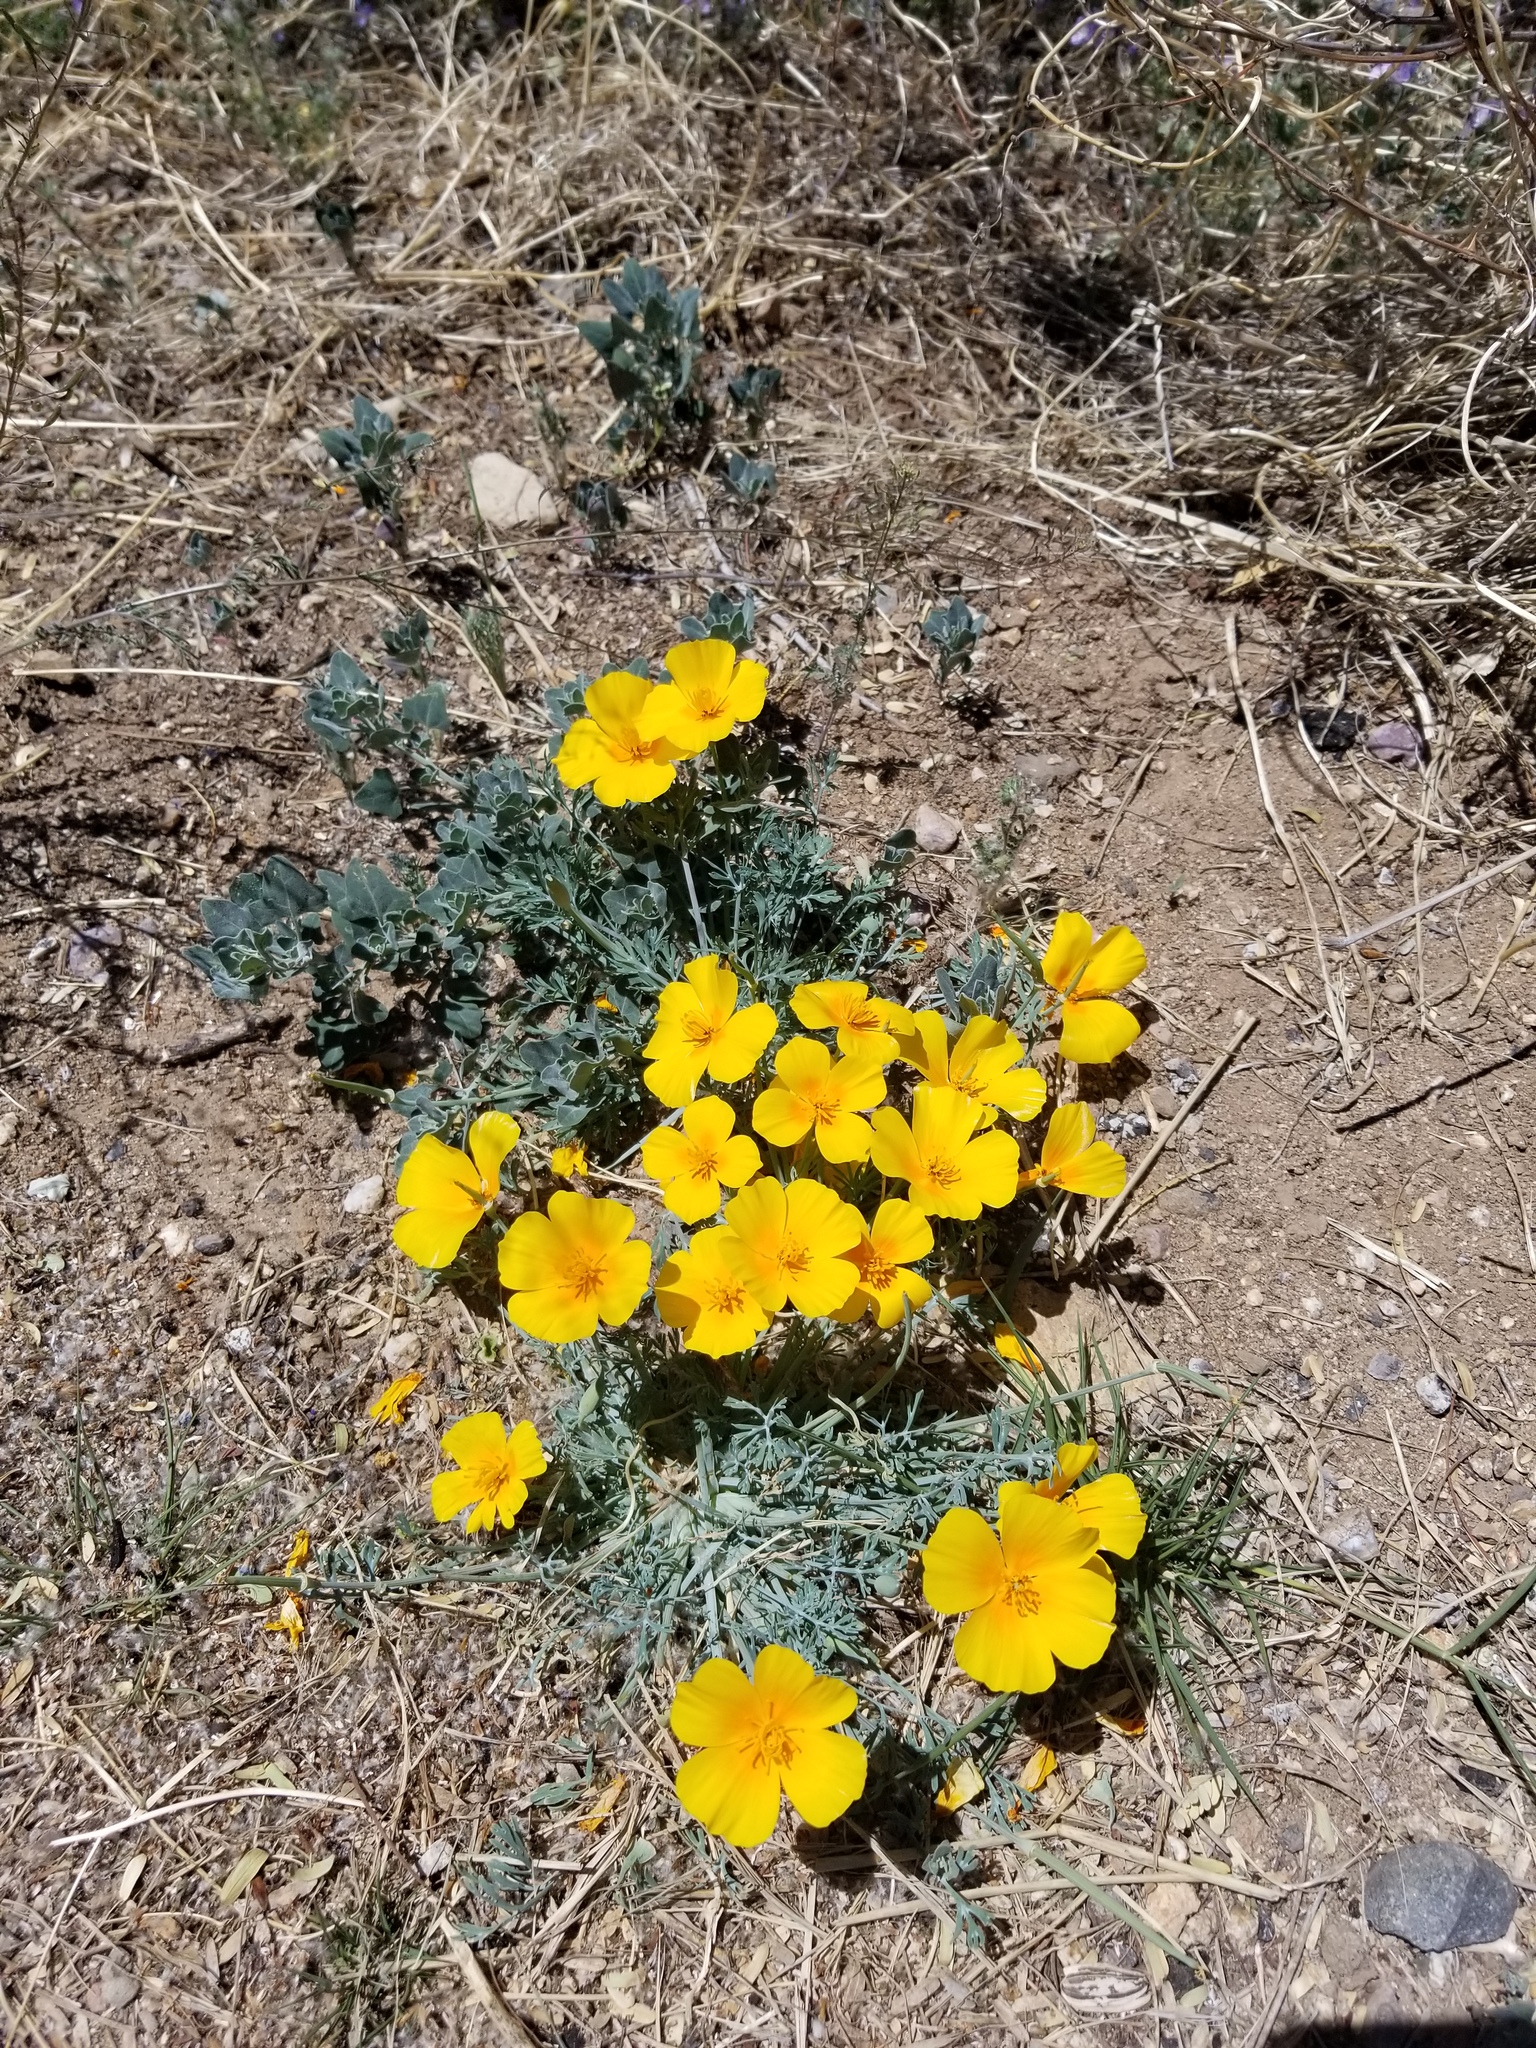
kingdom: Plantae
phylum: Tracheophyta
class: Magnoliopsida
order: Ranunculales
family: Papaveraceae
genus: Eschscholzia
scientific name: Eschscholzia californica
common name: California poppy
